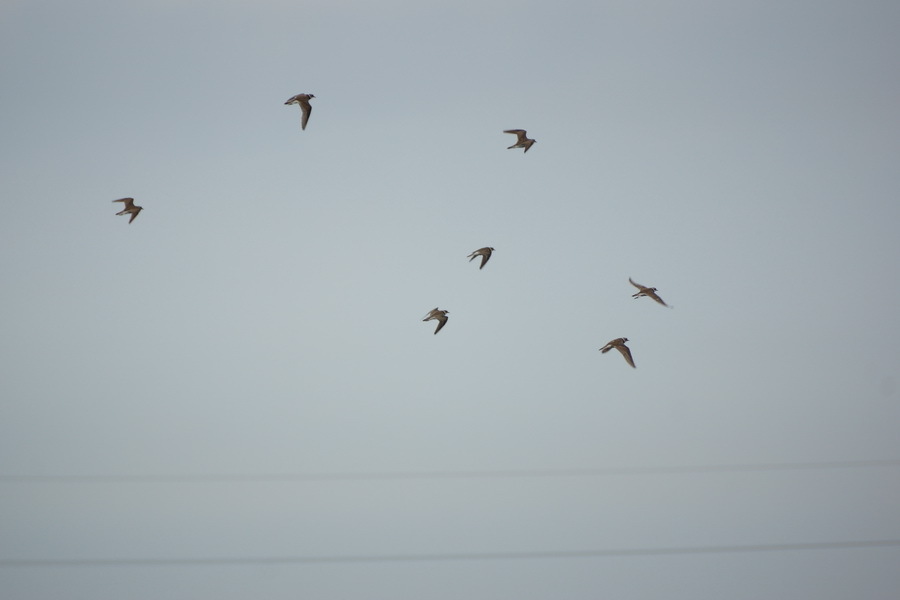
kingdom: Animalia
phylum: Chordata
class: Aves
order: Charadriiformes
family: Charadriidae
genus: Charadrius
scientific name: Charadrius dubius
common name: Little ringed plover
